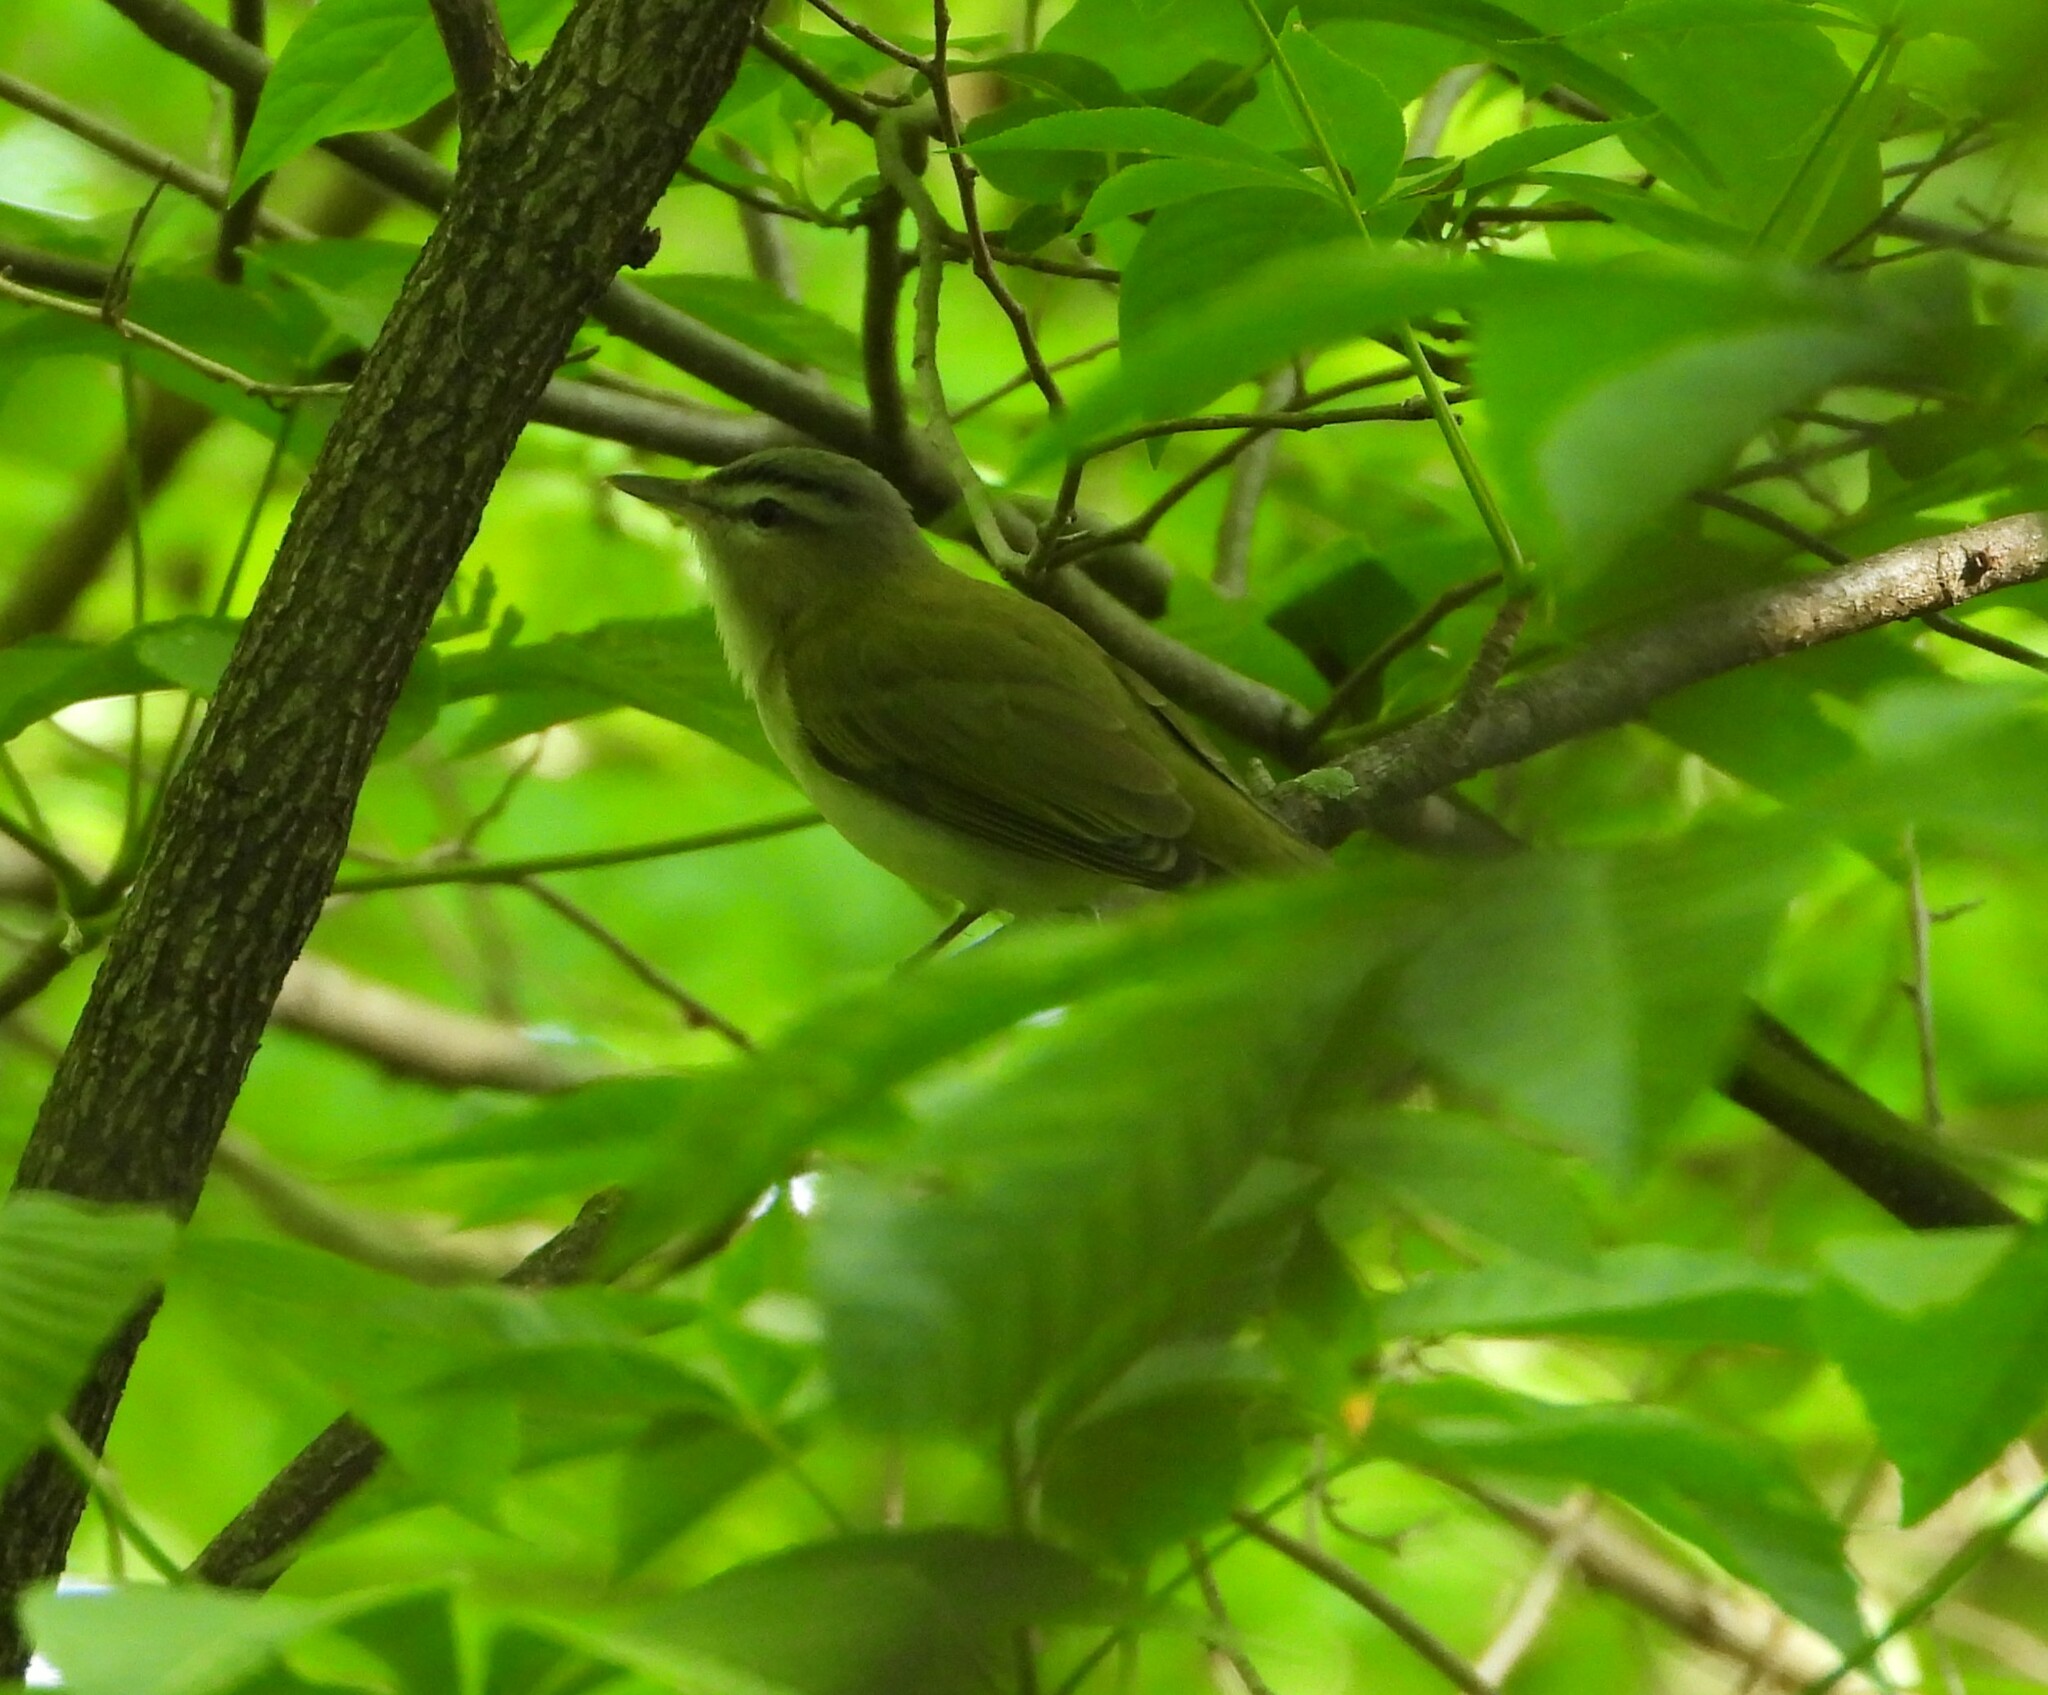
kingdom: Animalia
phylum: Chordata
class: Aves
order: Passeriformes
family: Vireonidae
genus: Vireo
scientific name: Vireo olivaceus
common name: Red-eyed vireo
